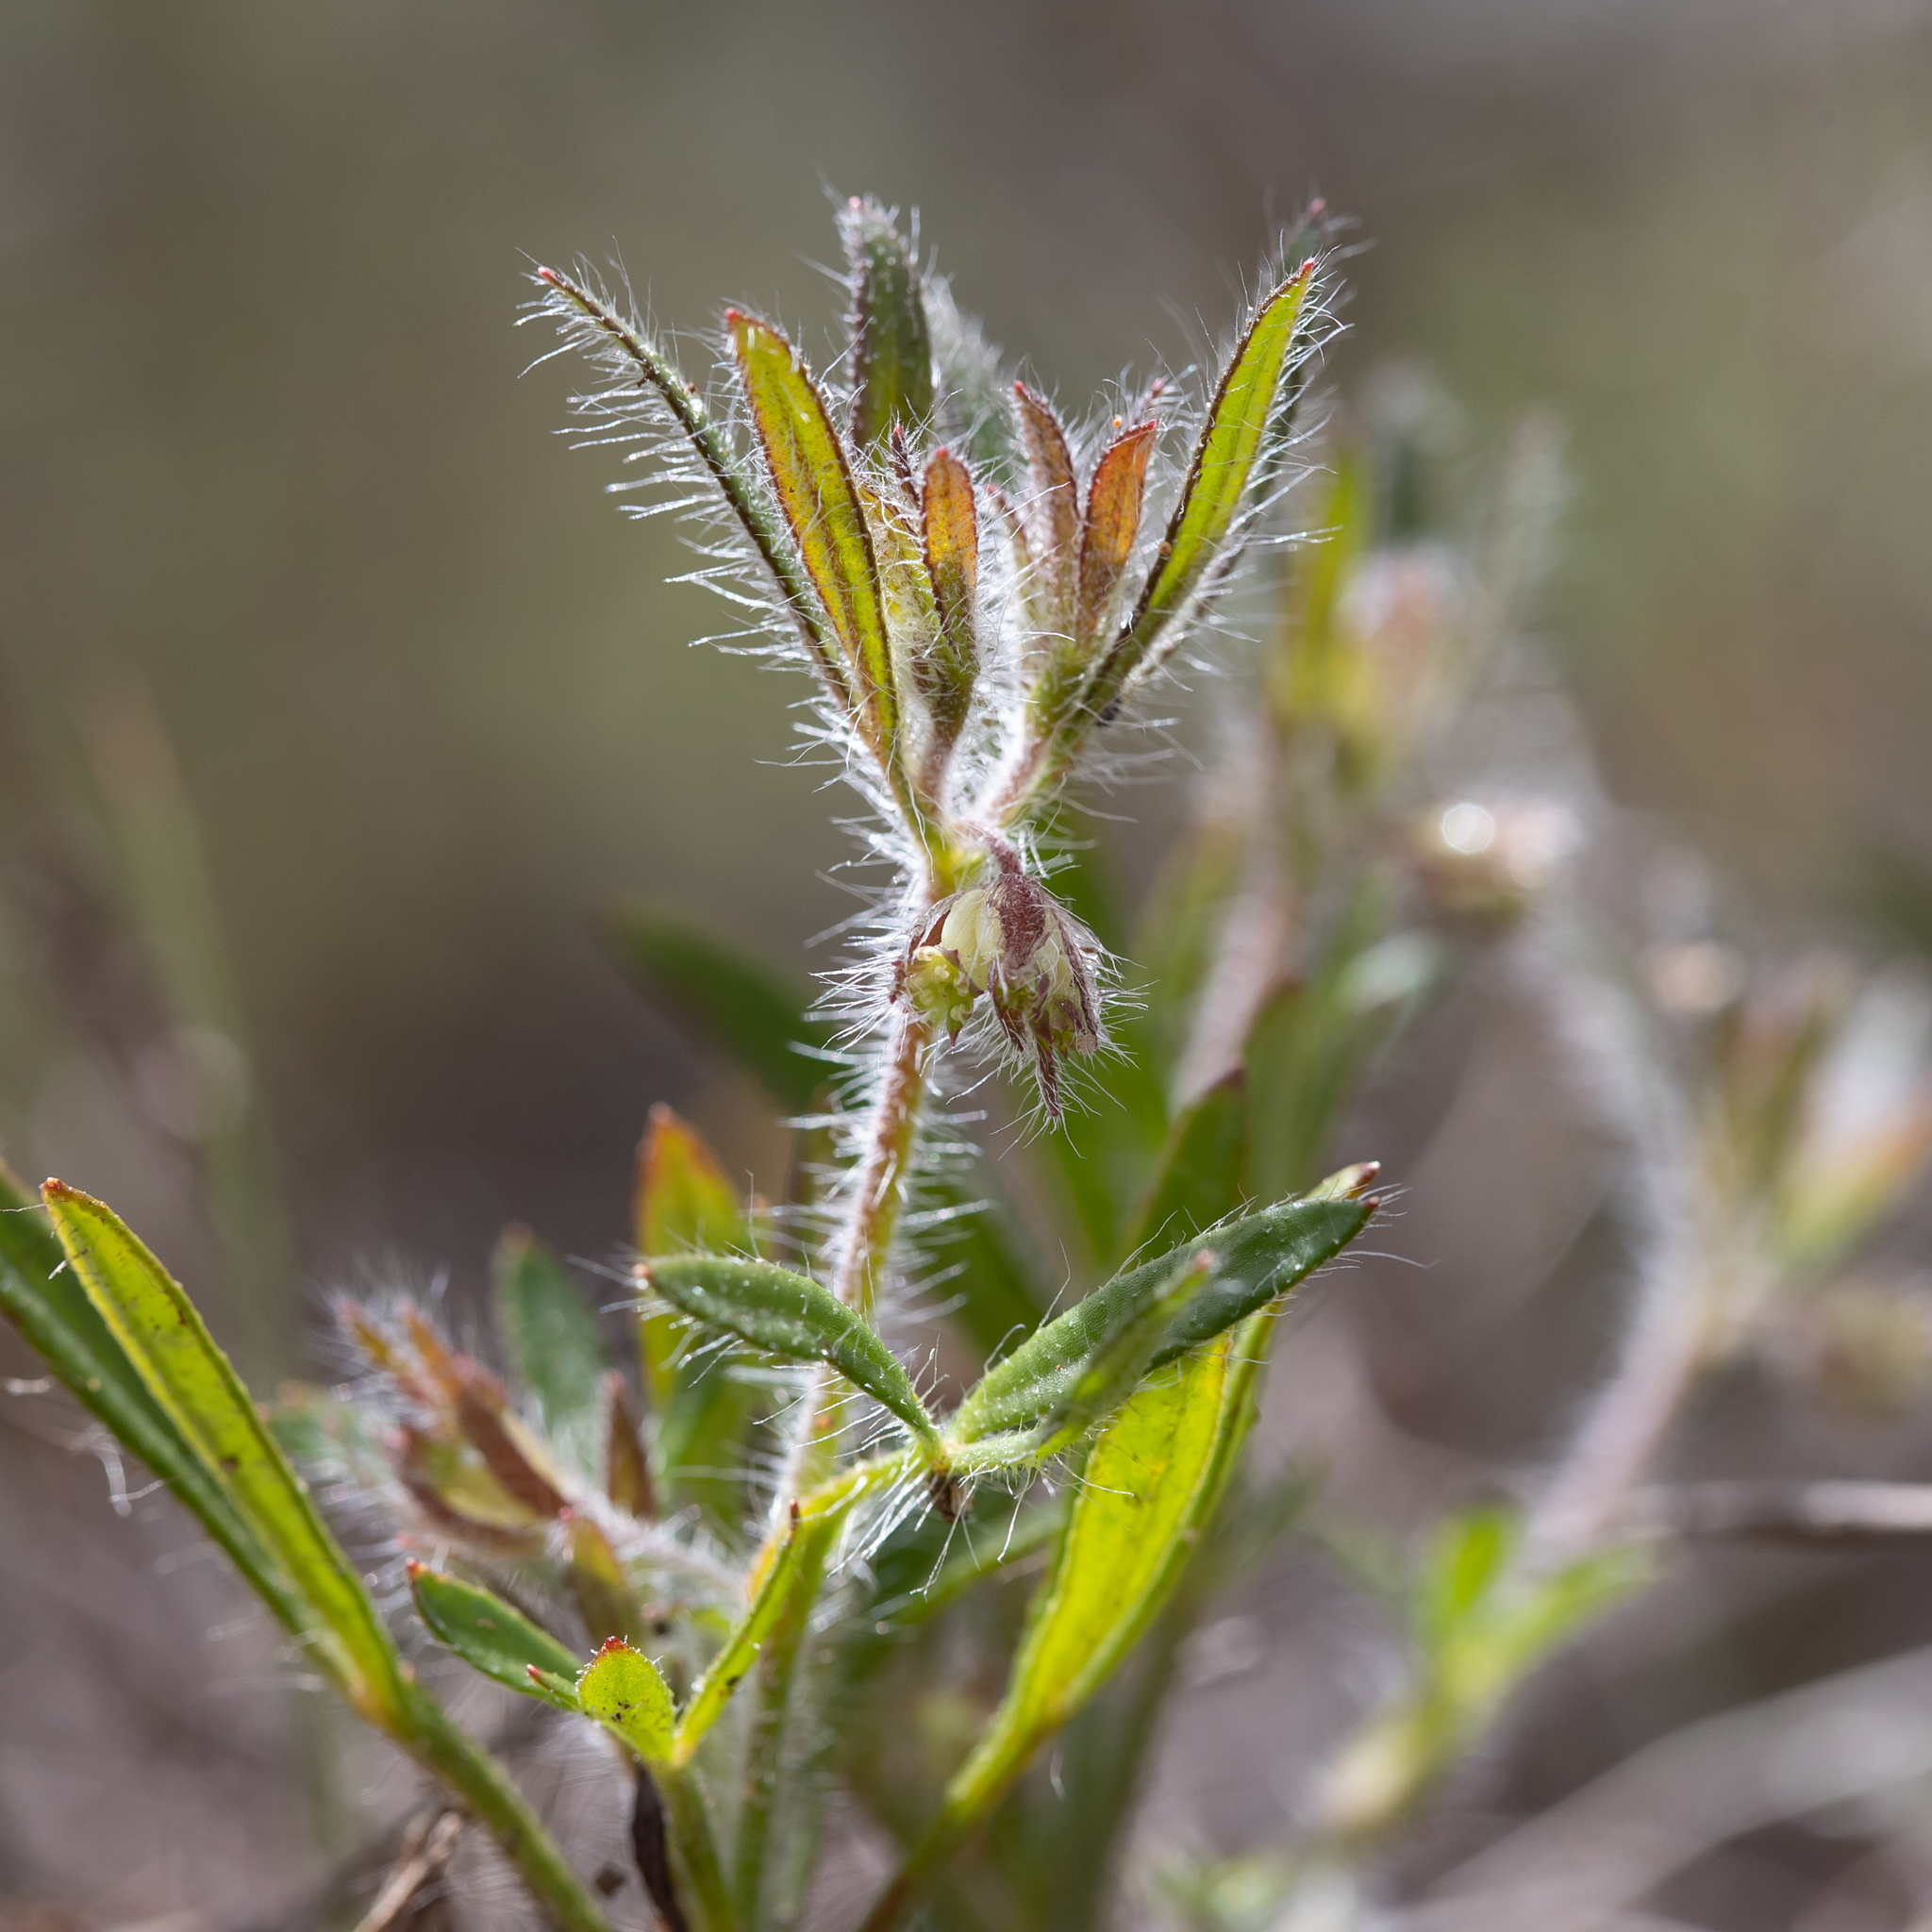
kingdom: Plantae
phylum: Tracheophyta
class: Magnoliopsida
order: Apiales
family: Apiaceae
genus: Xanthosia
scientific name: Xanthosia huegelii
